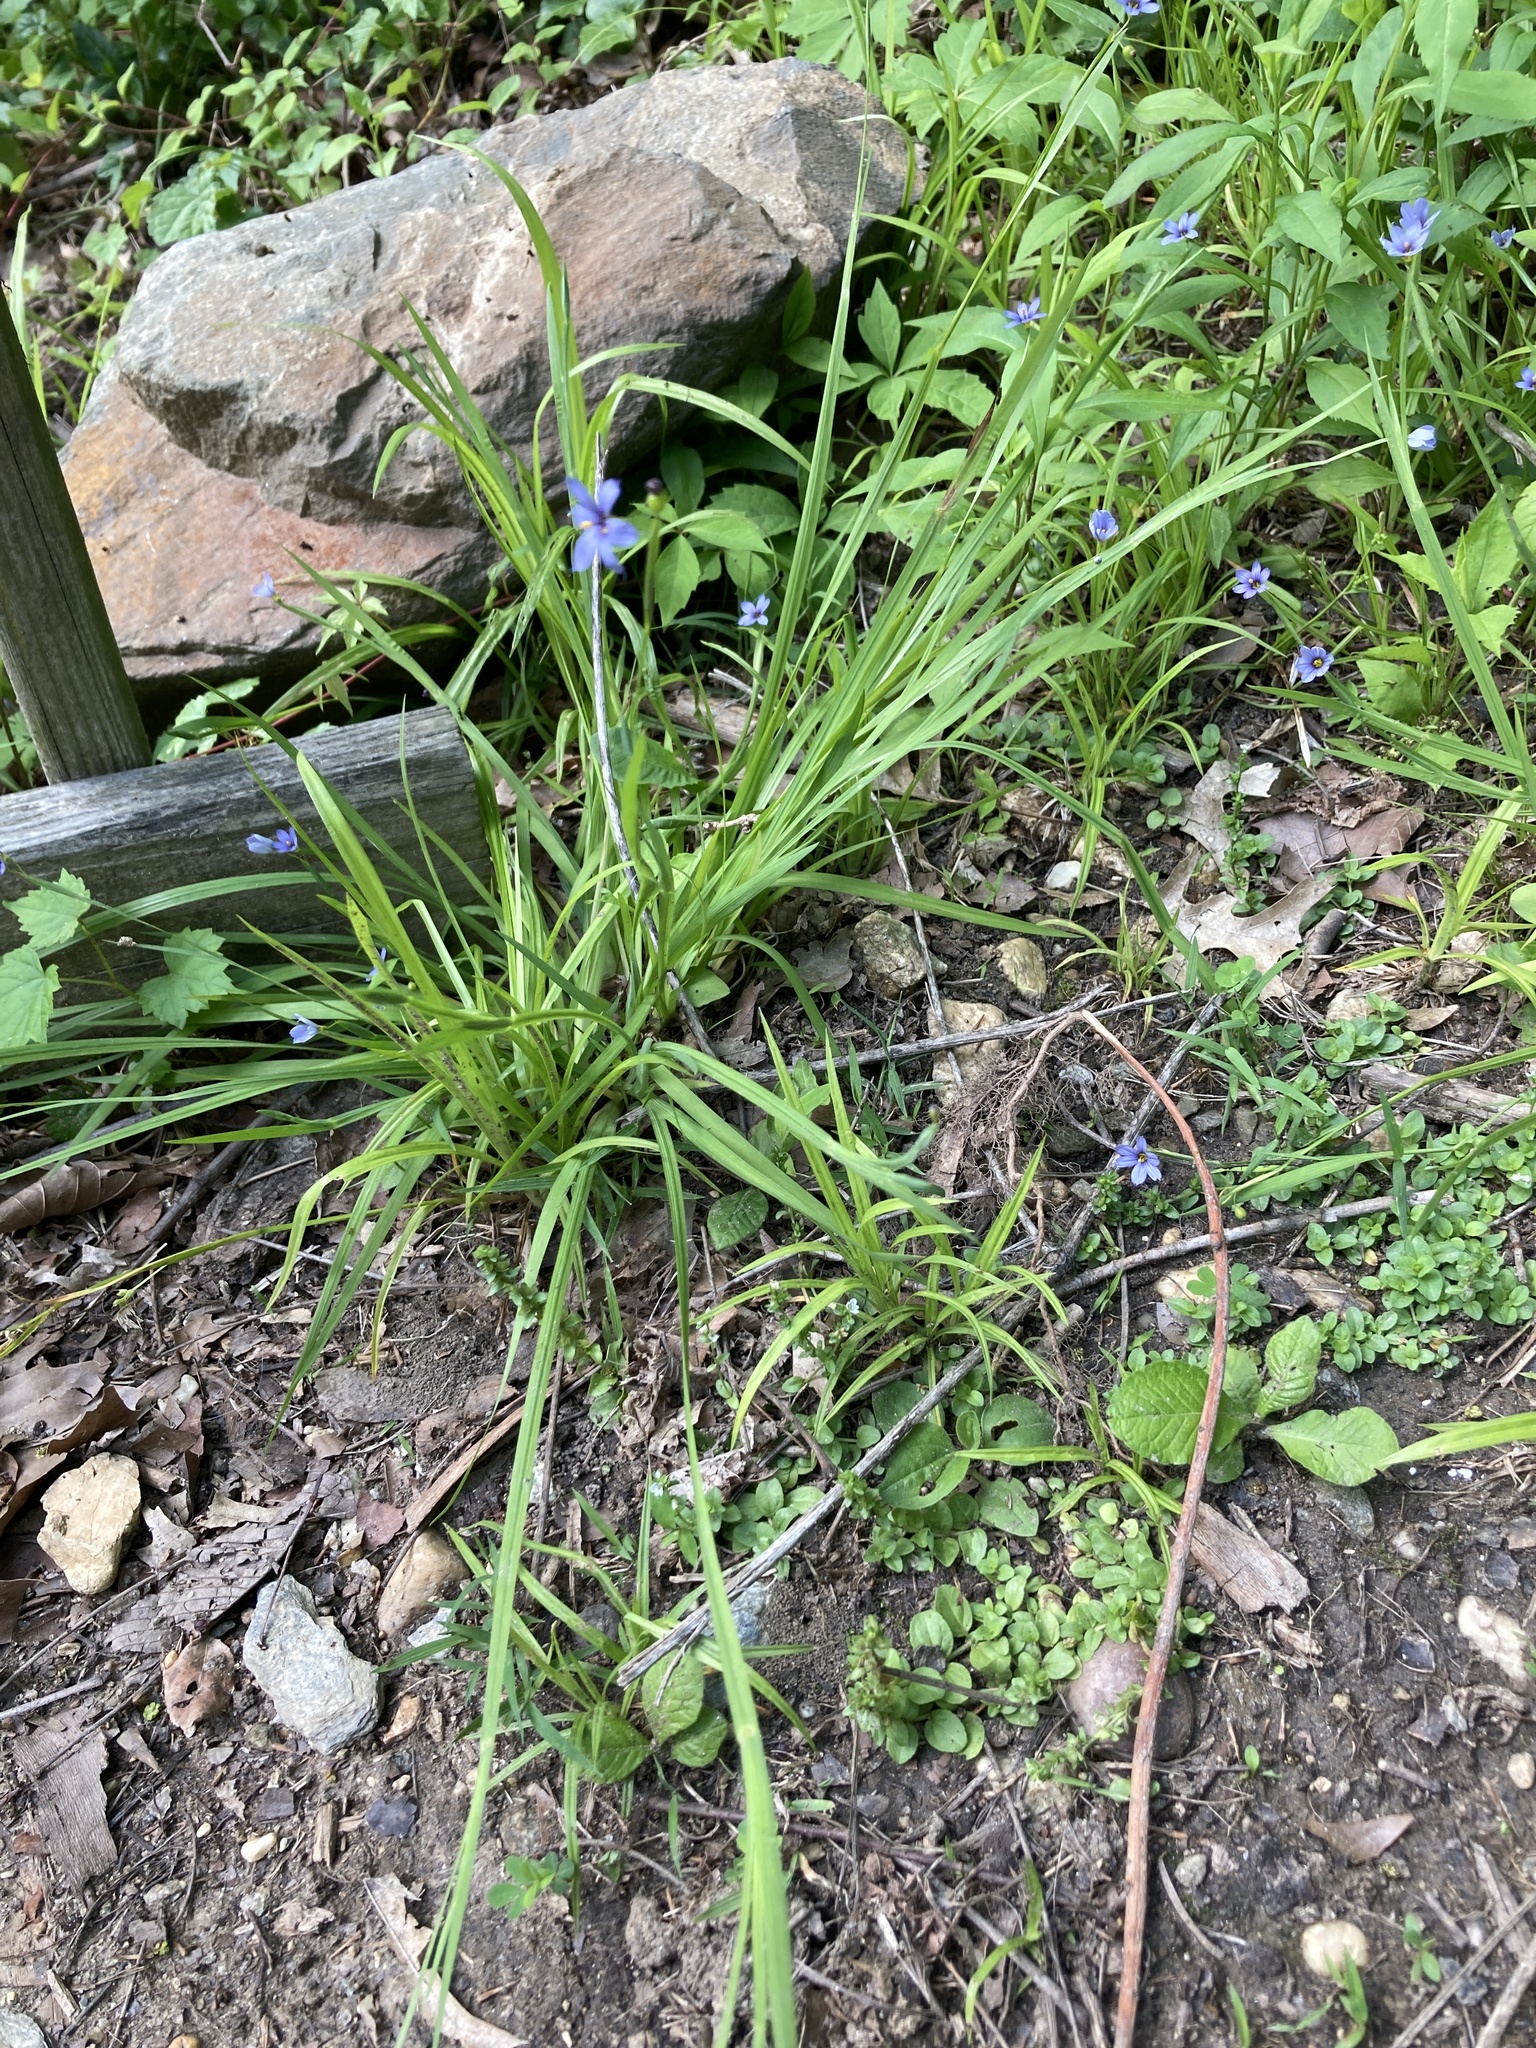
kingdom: Plantae
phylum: Tracheophyta
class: Liliopsida
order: Asparagales
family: Iridaceae
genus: Sisyrinchium
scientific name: Sisyrinchium angustifolium
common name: Narrow-leaf blue-eyed-grass
